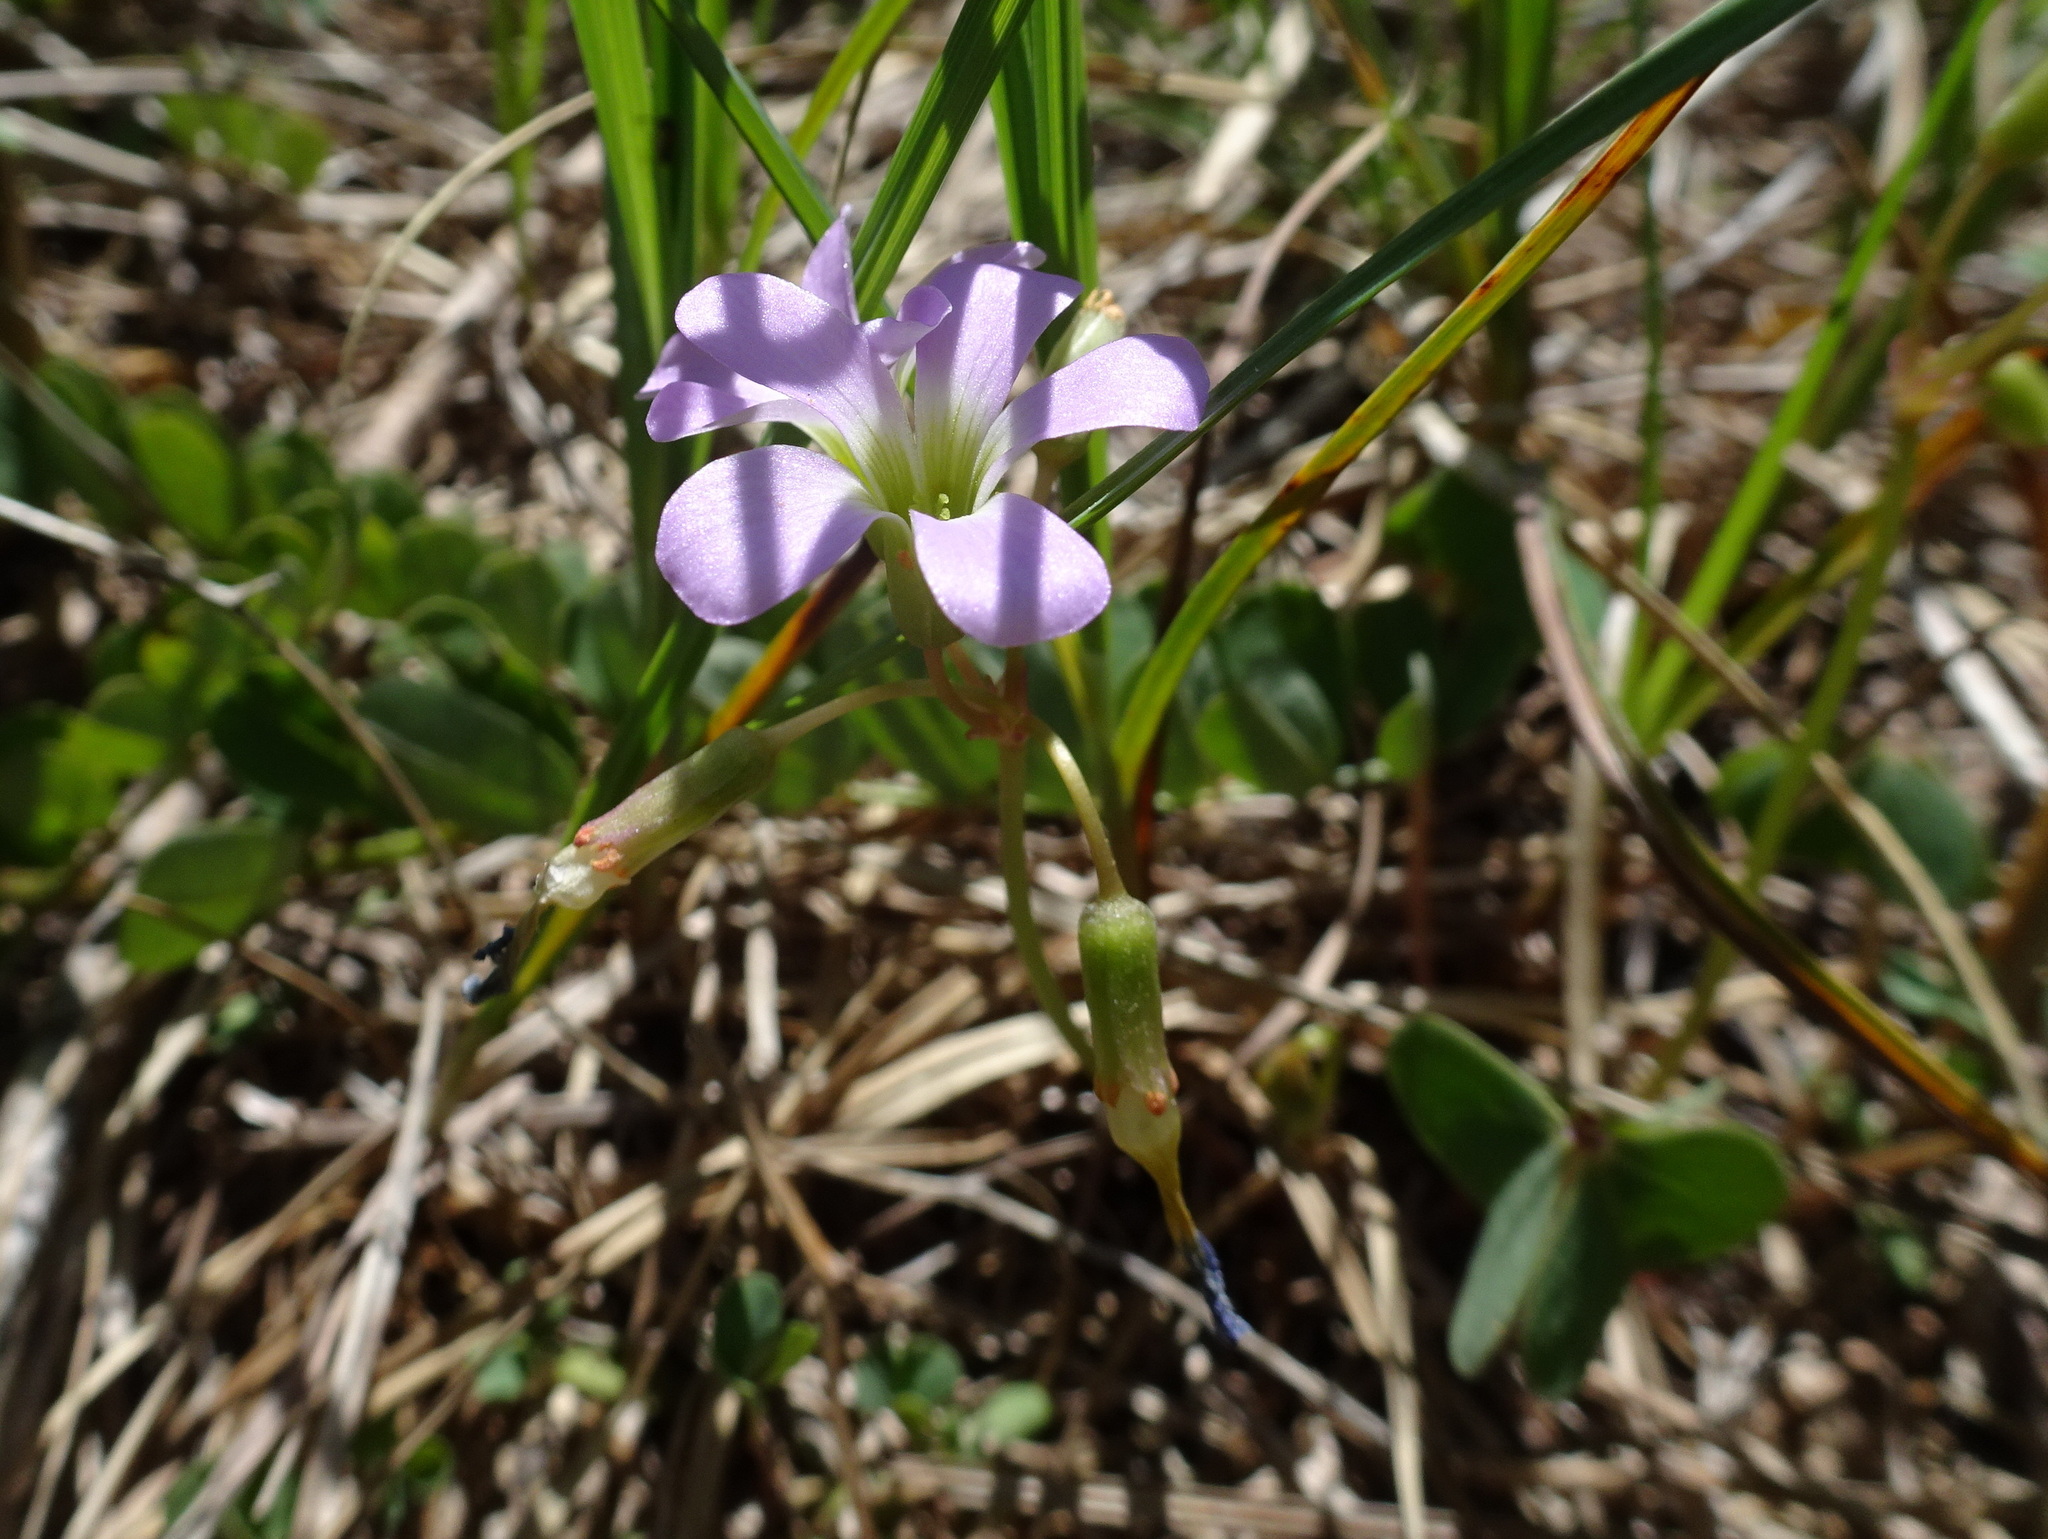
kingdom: Plantae
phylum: Tracheophyta
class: Magnoliopsida
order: Oxalidales
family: Oxalidaceae
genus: Oxalis
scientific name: Oxalis violacea
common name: Violet wood-sorrel
